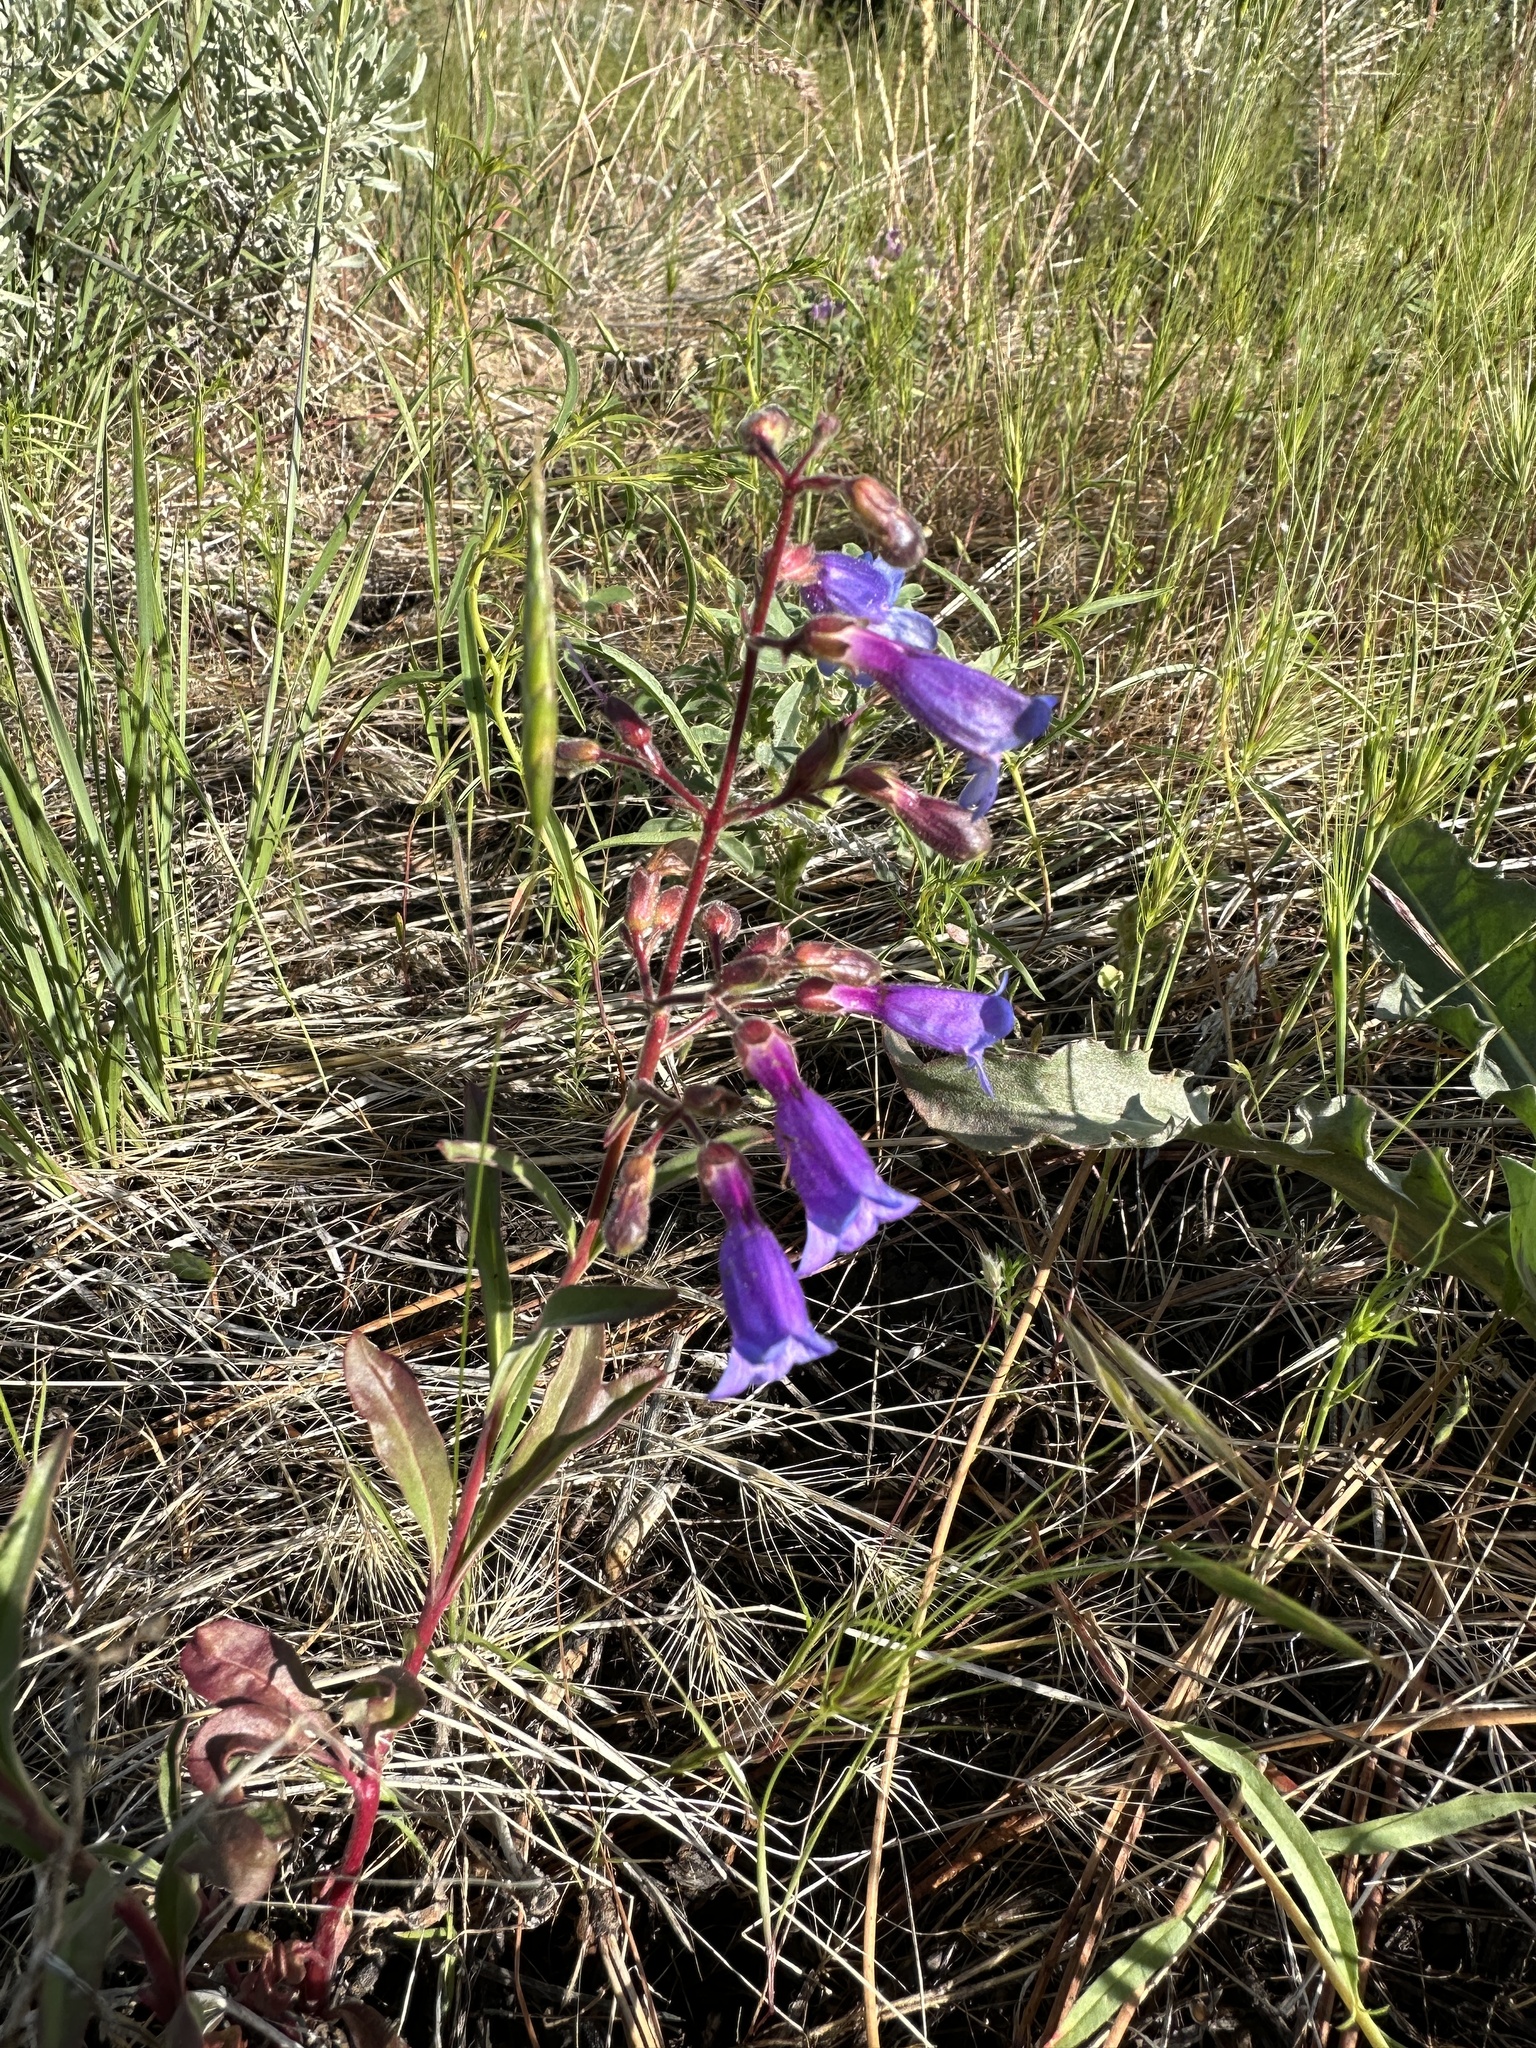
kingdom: Plantae
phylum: Tracheophyta
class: Magnoliopsida
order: Lamiales
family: Plantaginaceae
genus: Penstemon
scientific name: Penstemon roezlii
